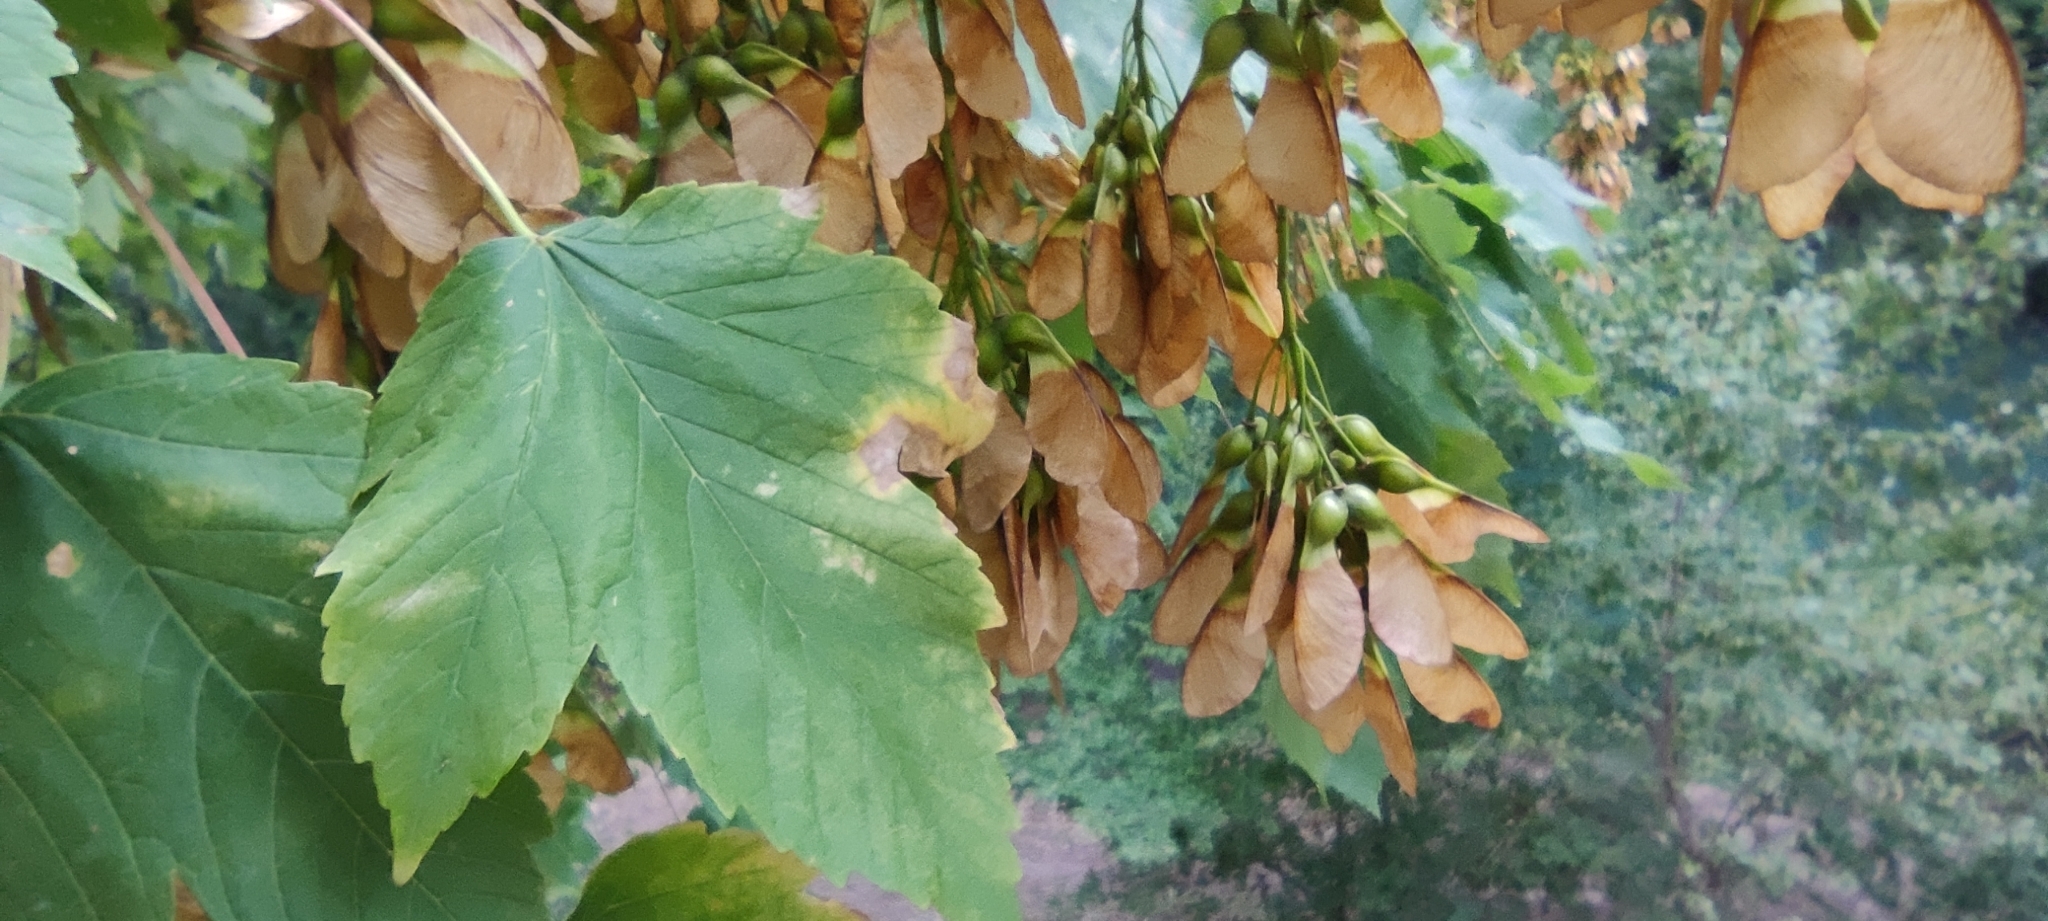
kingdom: Plantae
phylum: Tracheophyta
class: Magnoliopsida
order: Sapindales
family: Sapindaceae
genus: Acer
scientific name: Acer pseudoplatanus
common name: Sycamore
